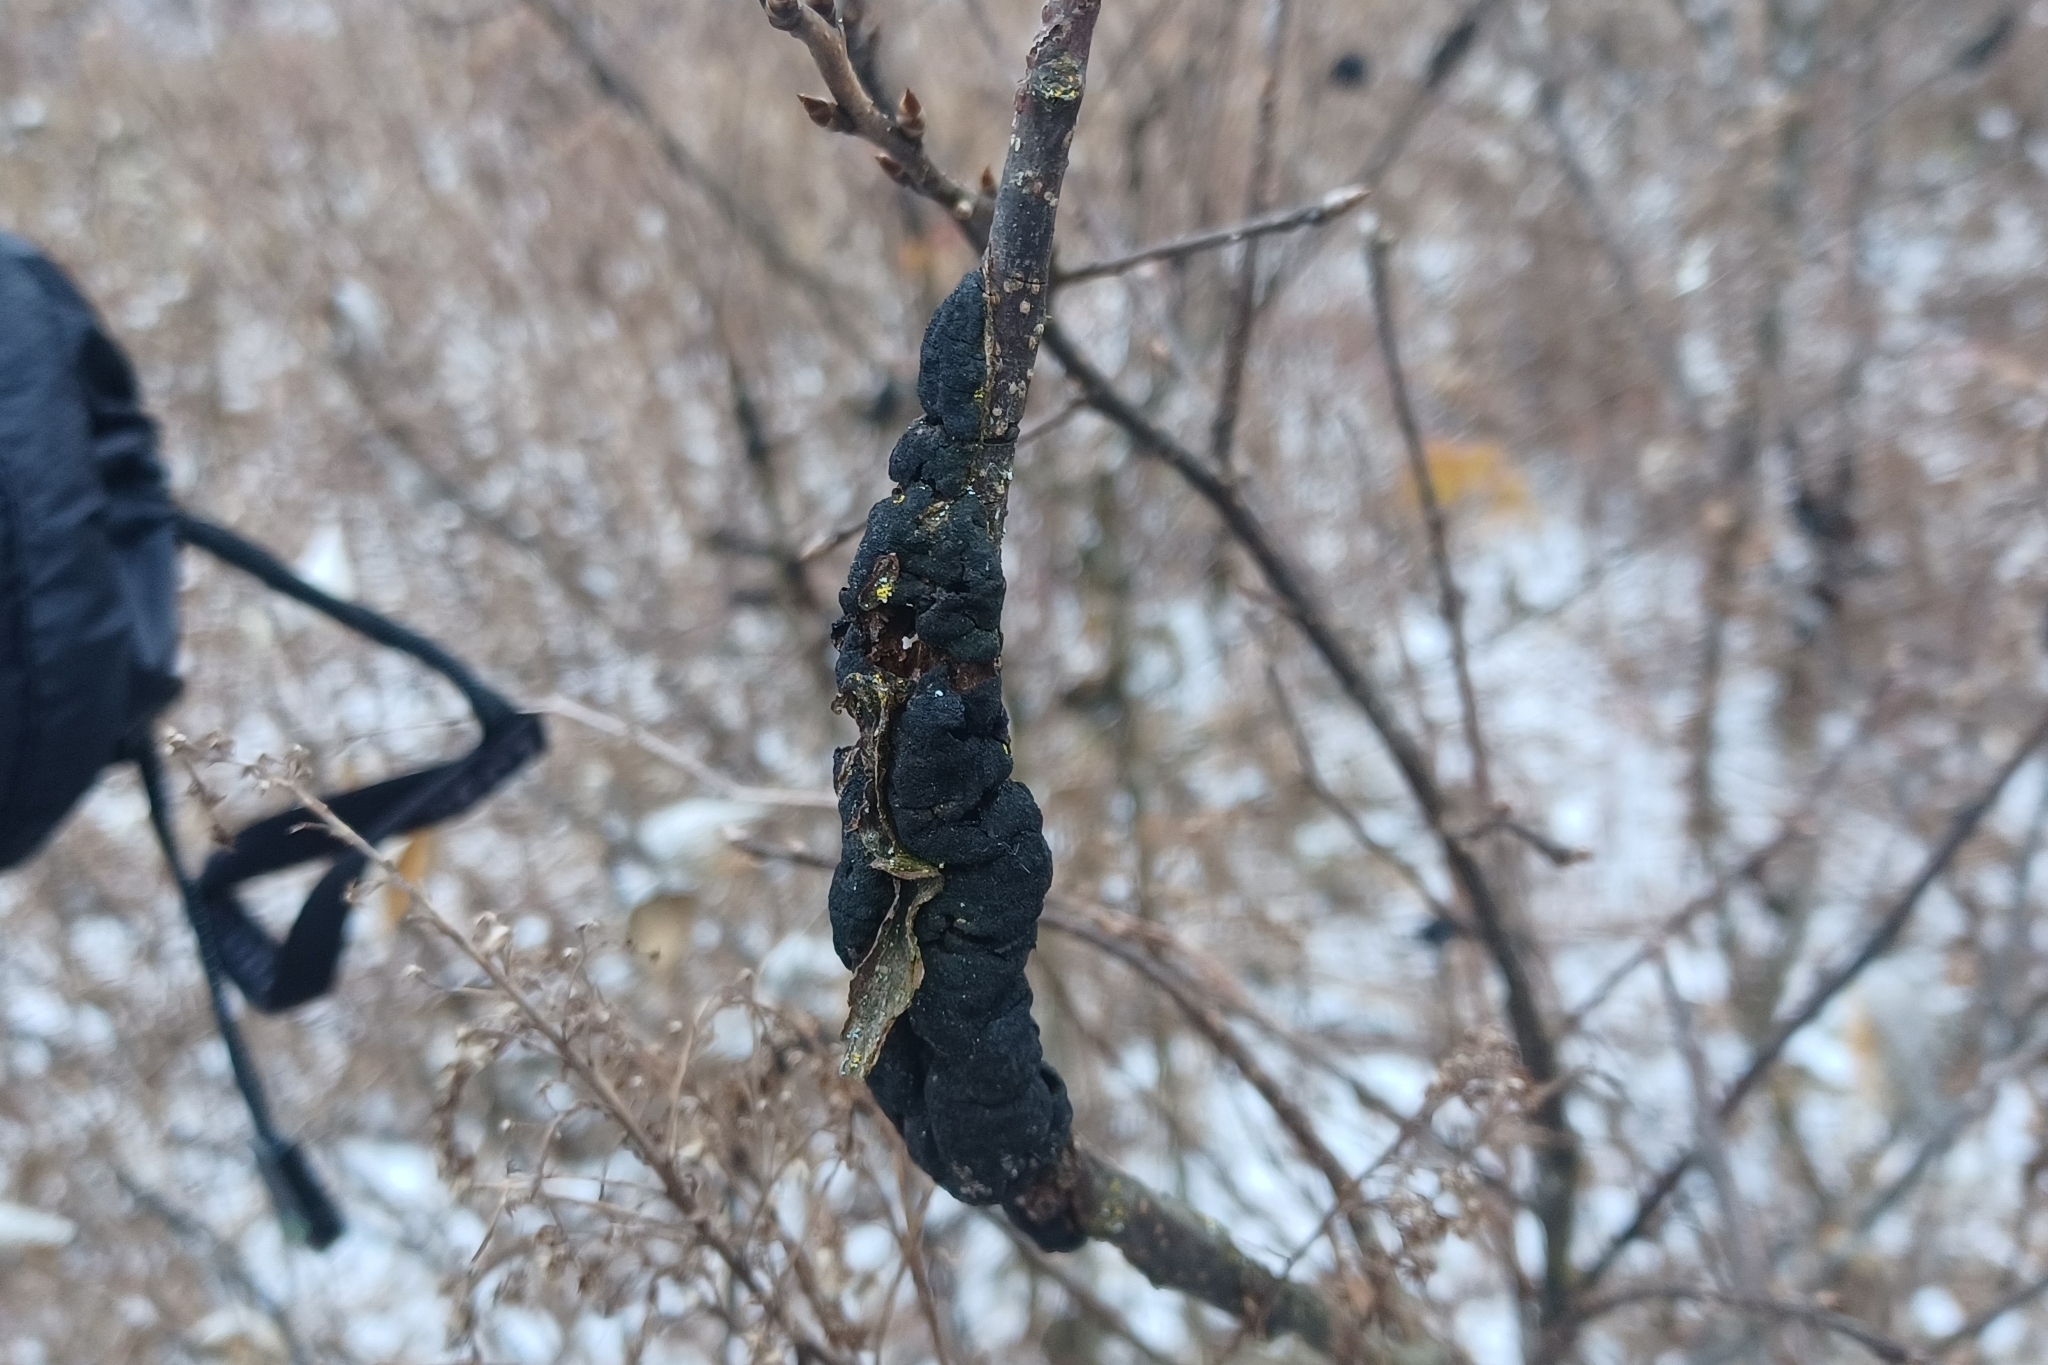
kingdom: Fungi
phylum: Ascomycota
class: Dothideomycetes
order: Venturiales
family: Venturiaceae
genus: Apiosporina
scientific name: Apiosporina morbosa
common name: Black knot
